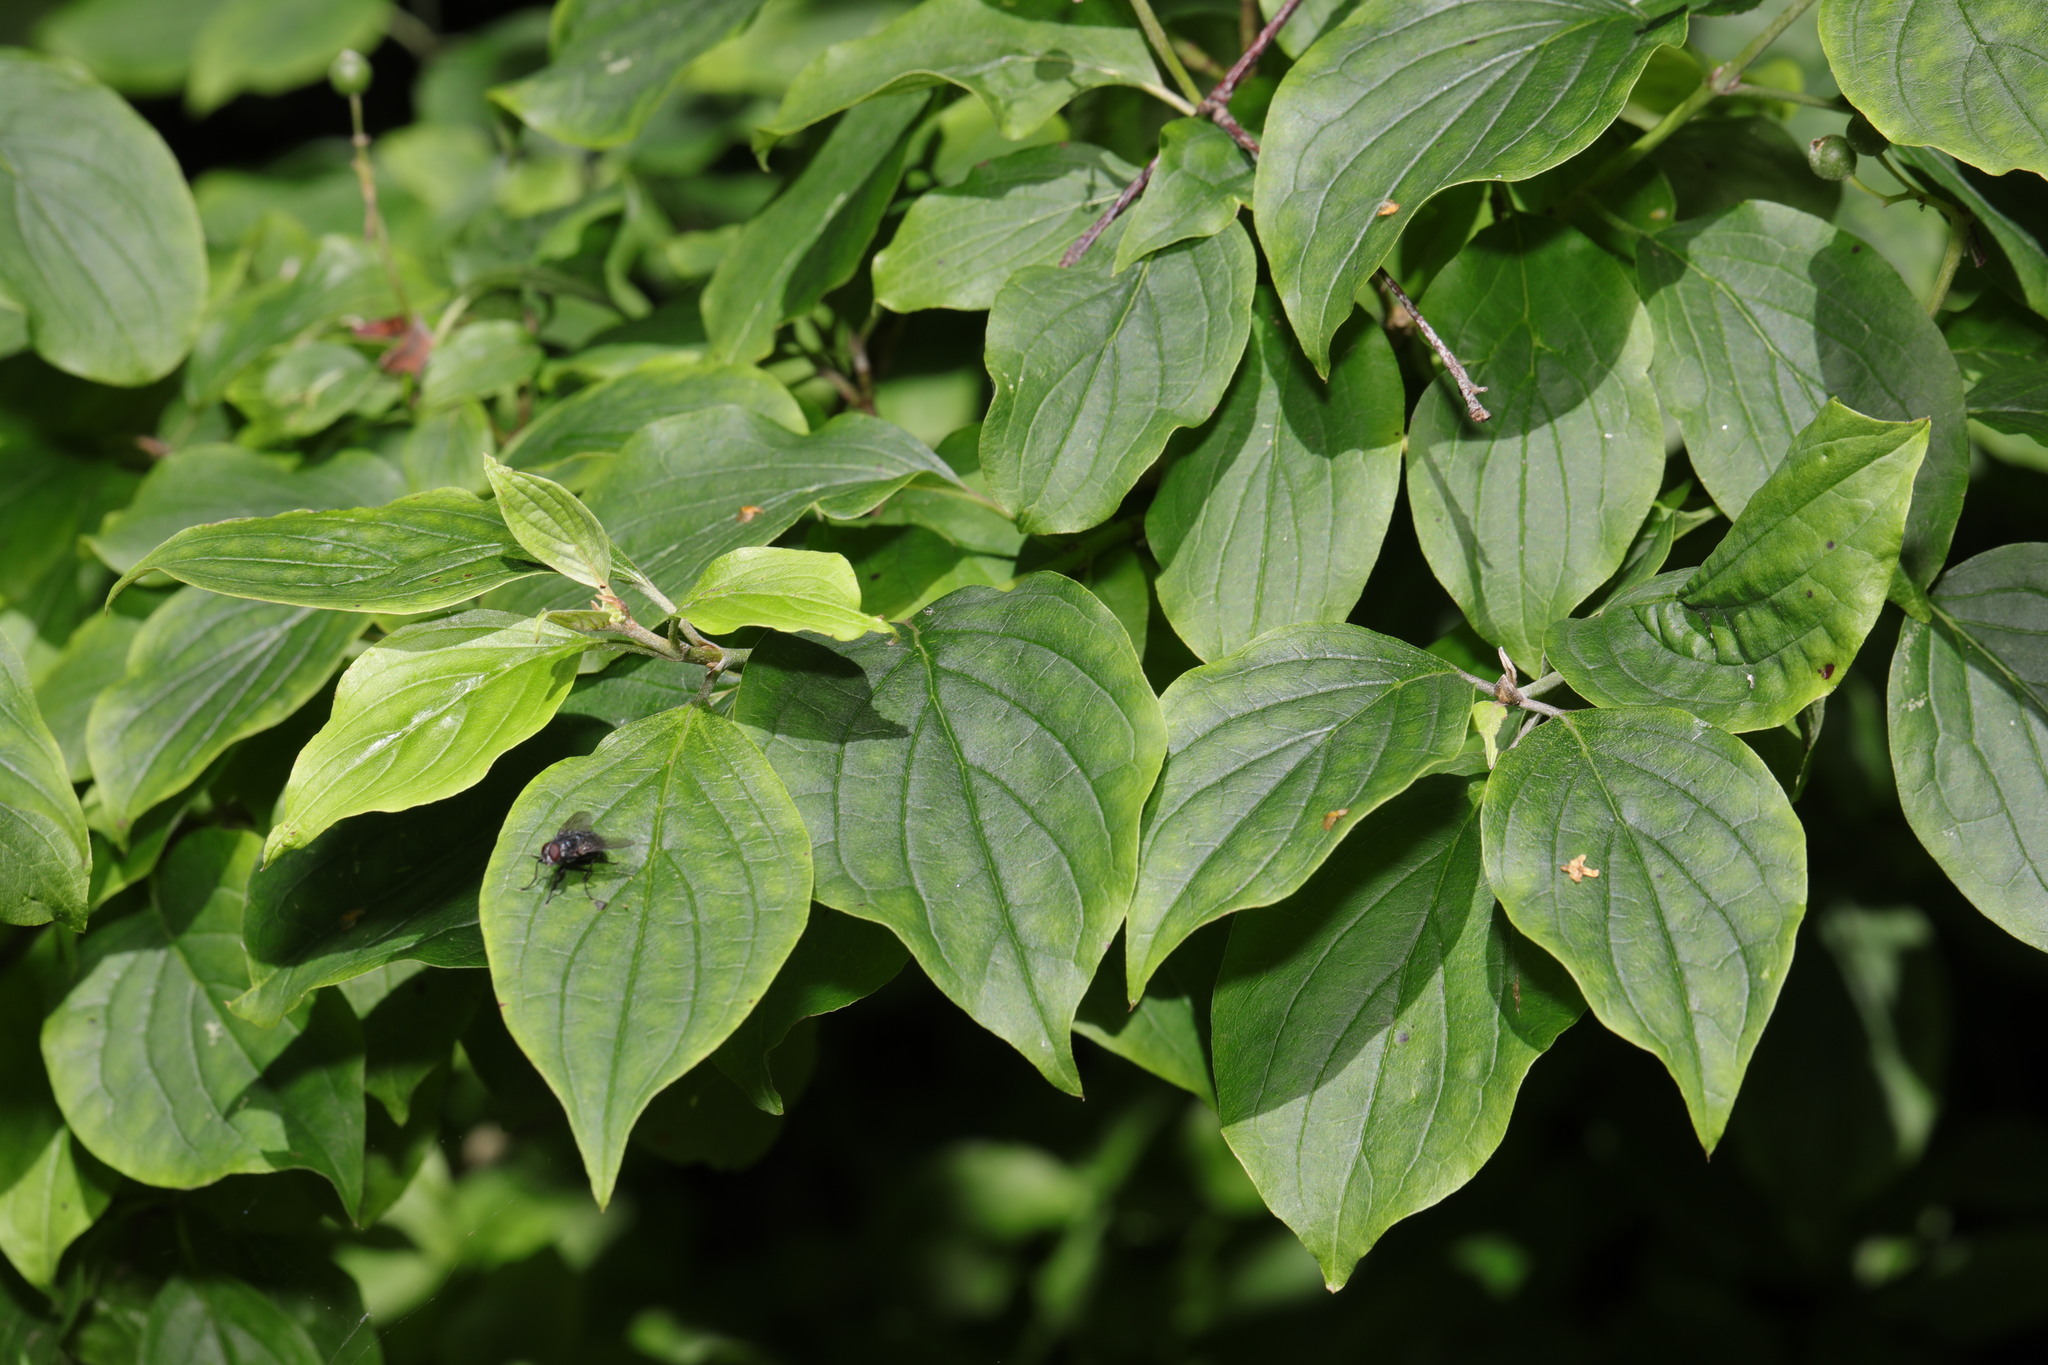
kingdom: Plantae
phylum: Tracheophyta
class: Magnoliopsida
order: Cornales
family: Cornaceae
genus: Cornus
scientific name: Cornus sanguinea
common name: Dogwood
